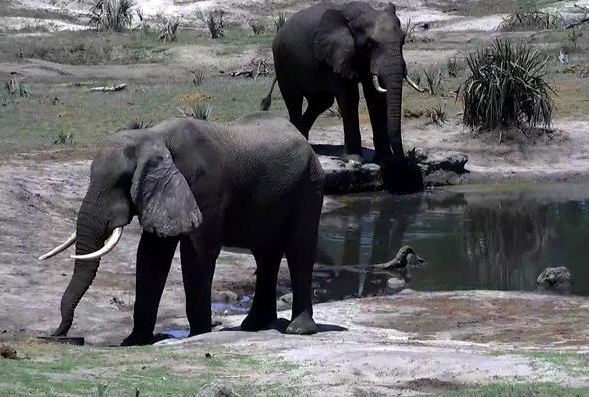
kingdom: Animalia
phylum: Chordata
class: Mammalia
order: Proboscidea
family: Elephantidae
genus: Loxodonta
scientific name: Loxodonta africana
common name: African elephant
